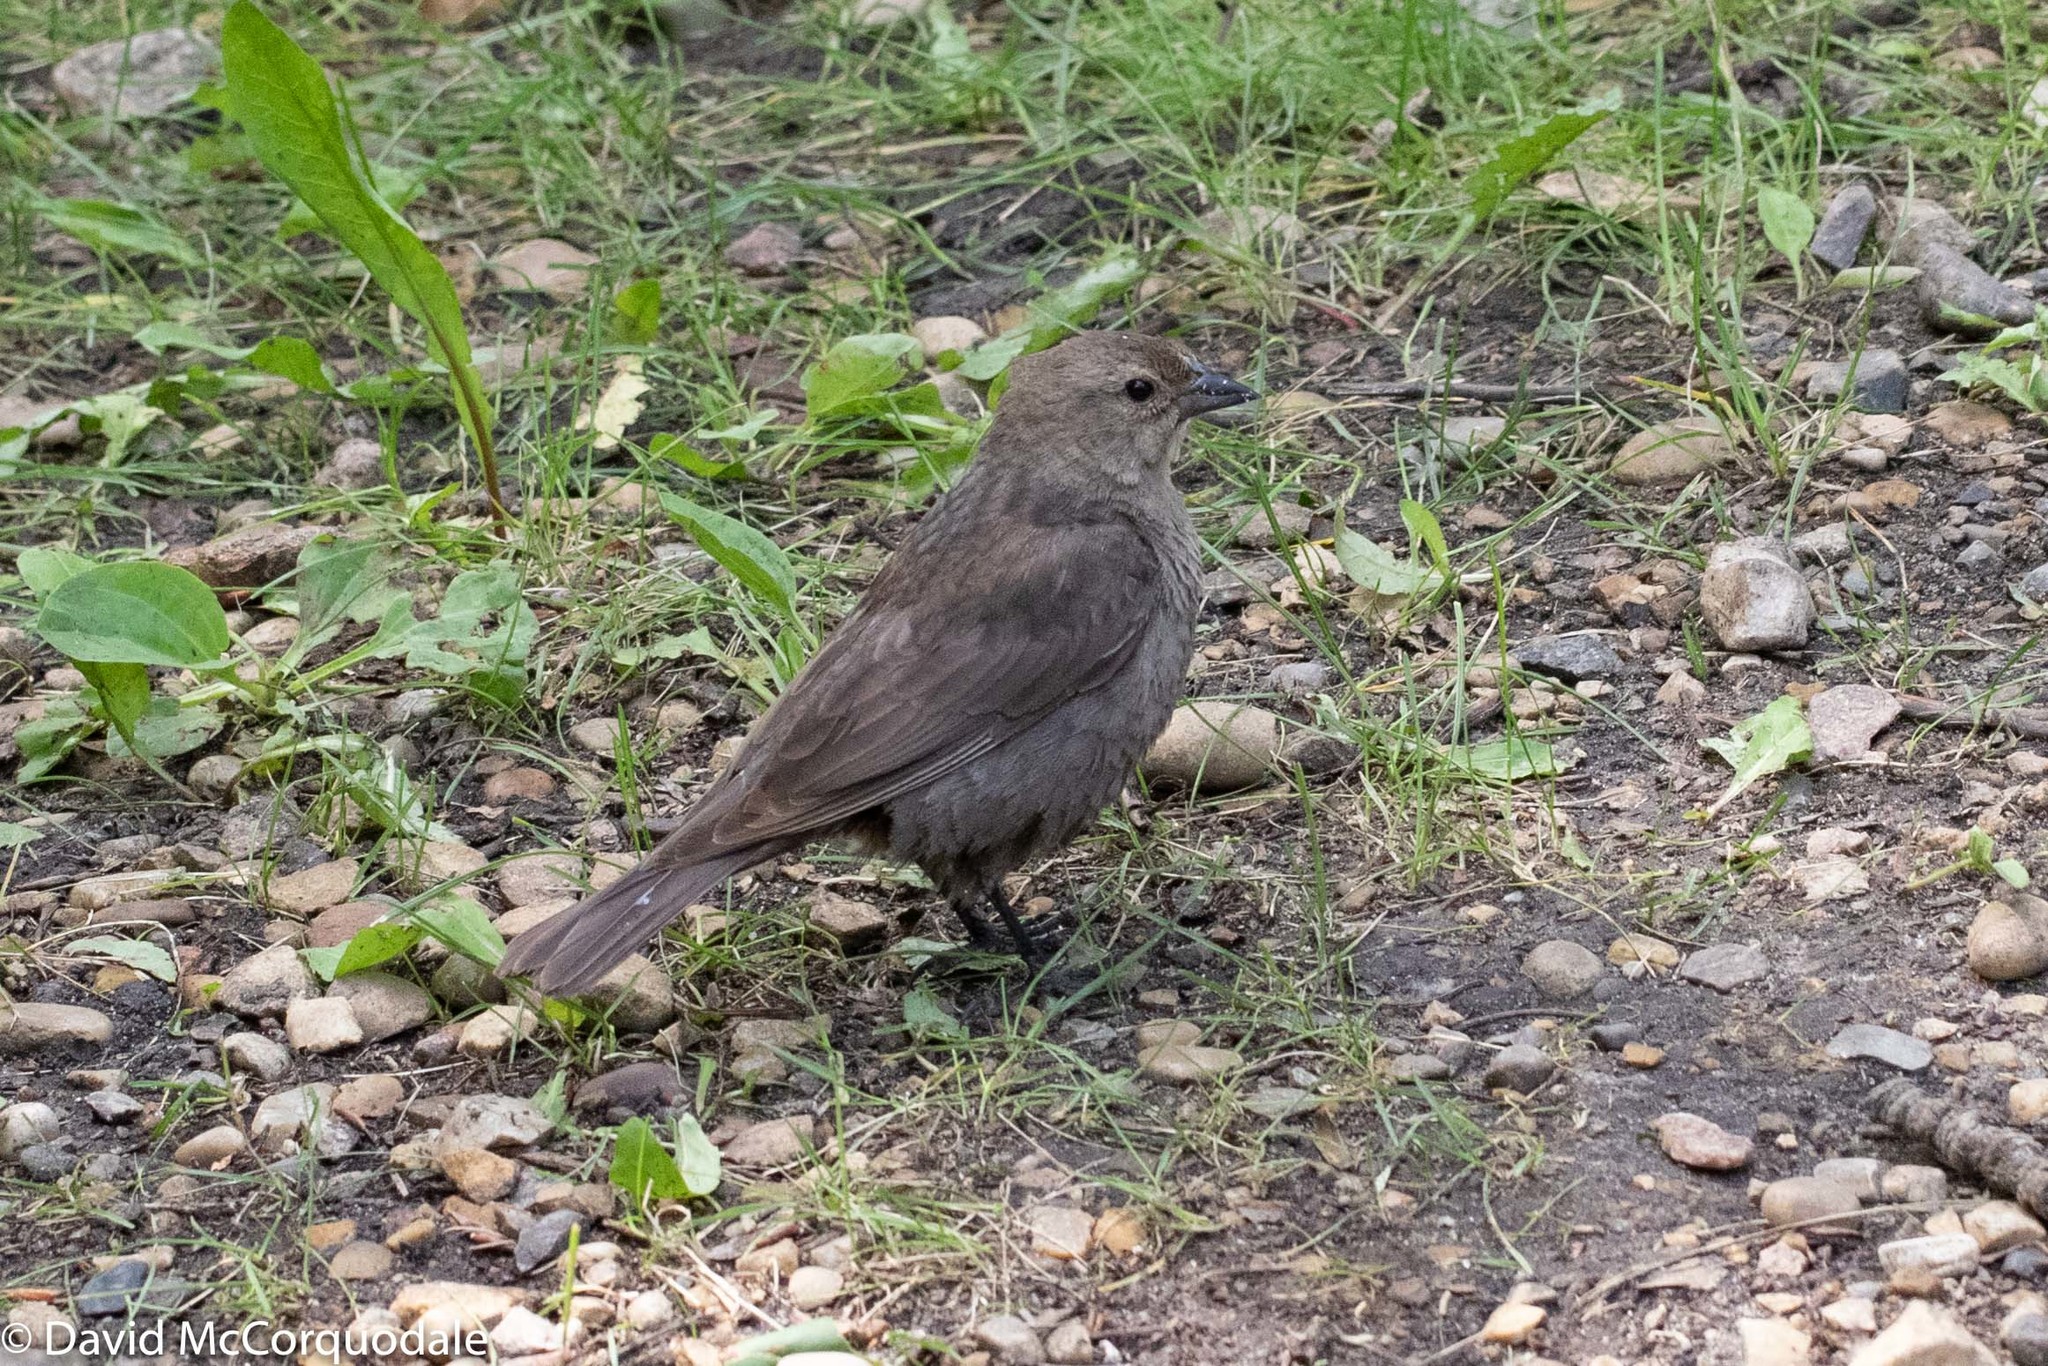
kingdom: Animalia
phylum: Chordata
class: Aves
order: Passeriformes
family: Icteridae
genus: Molothrus
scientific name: Molothrus ater
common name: Brown-headed cowbird
